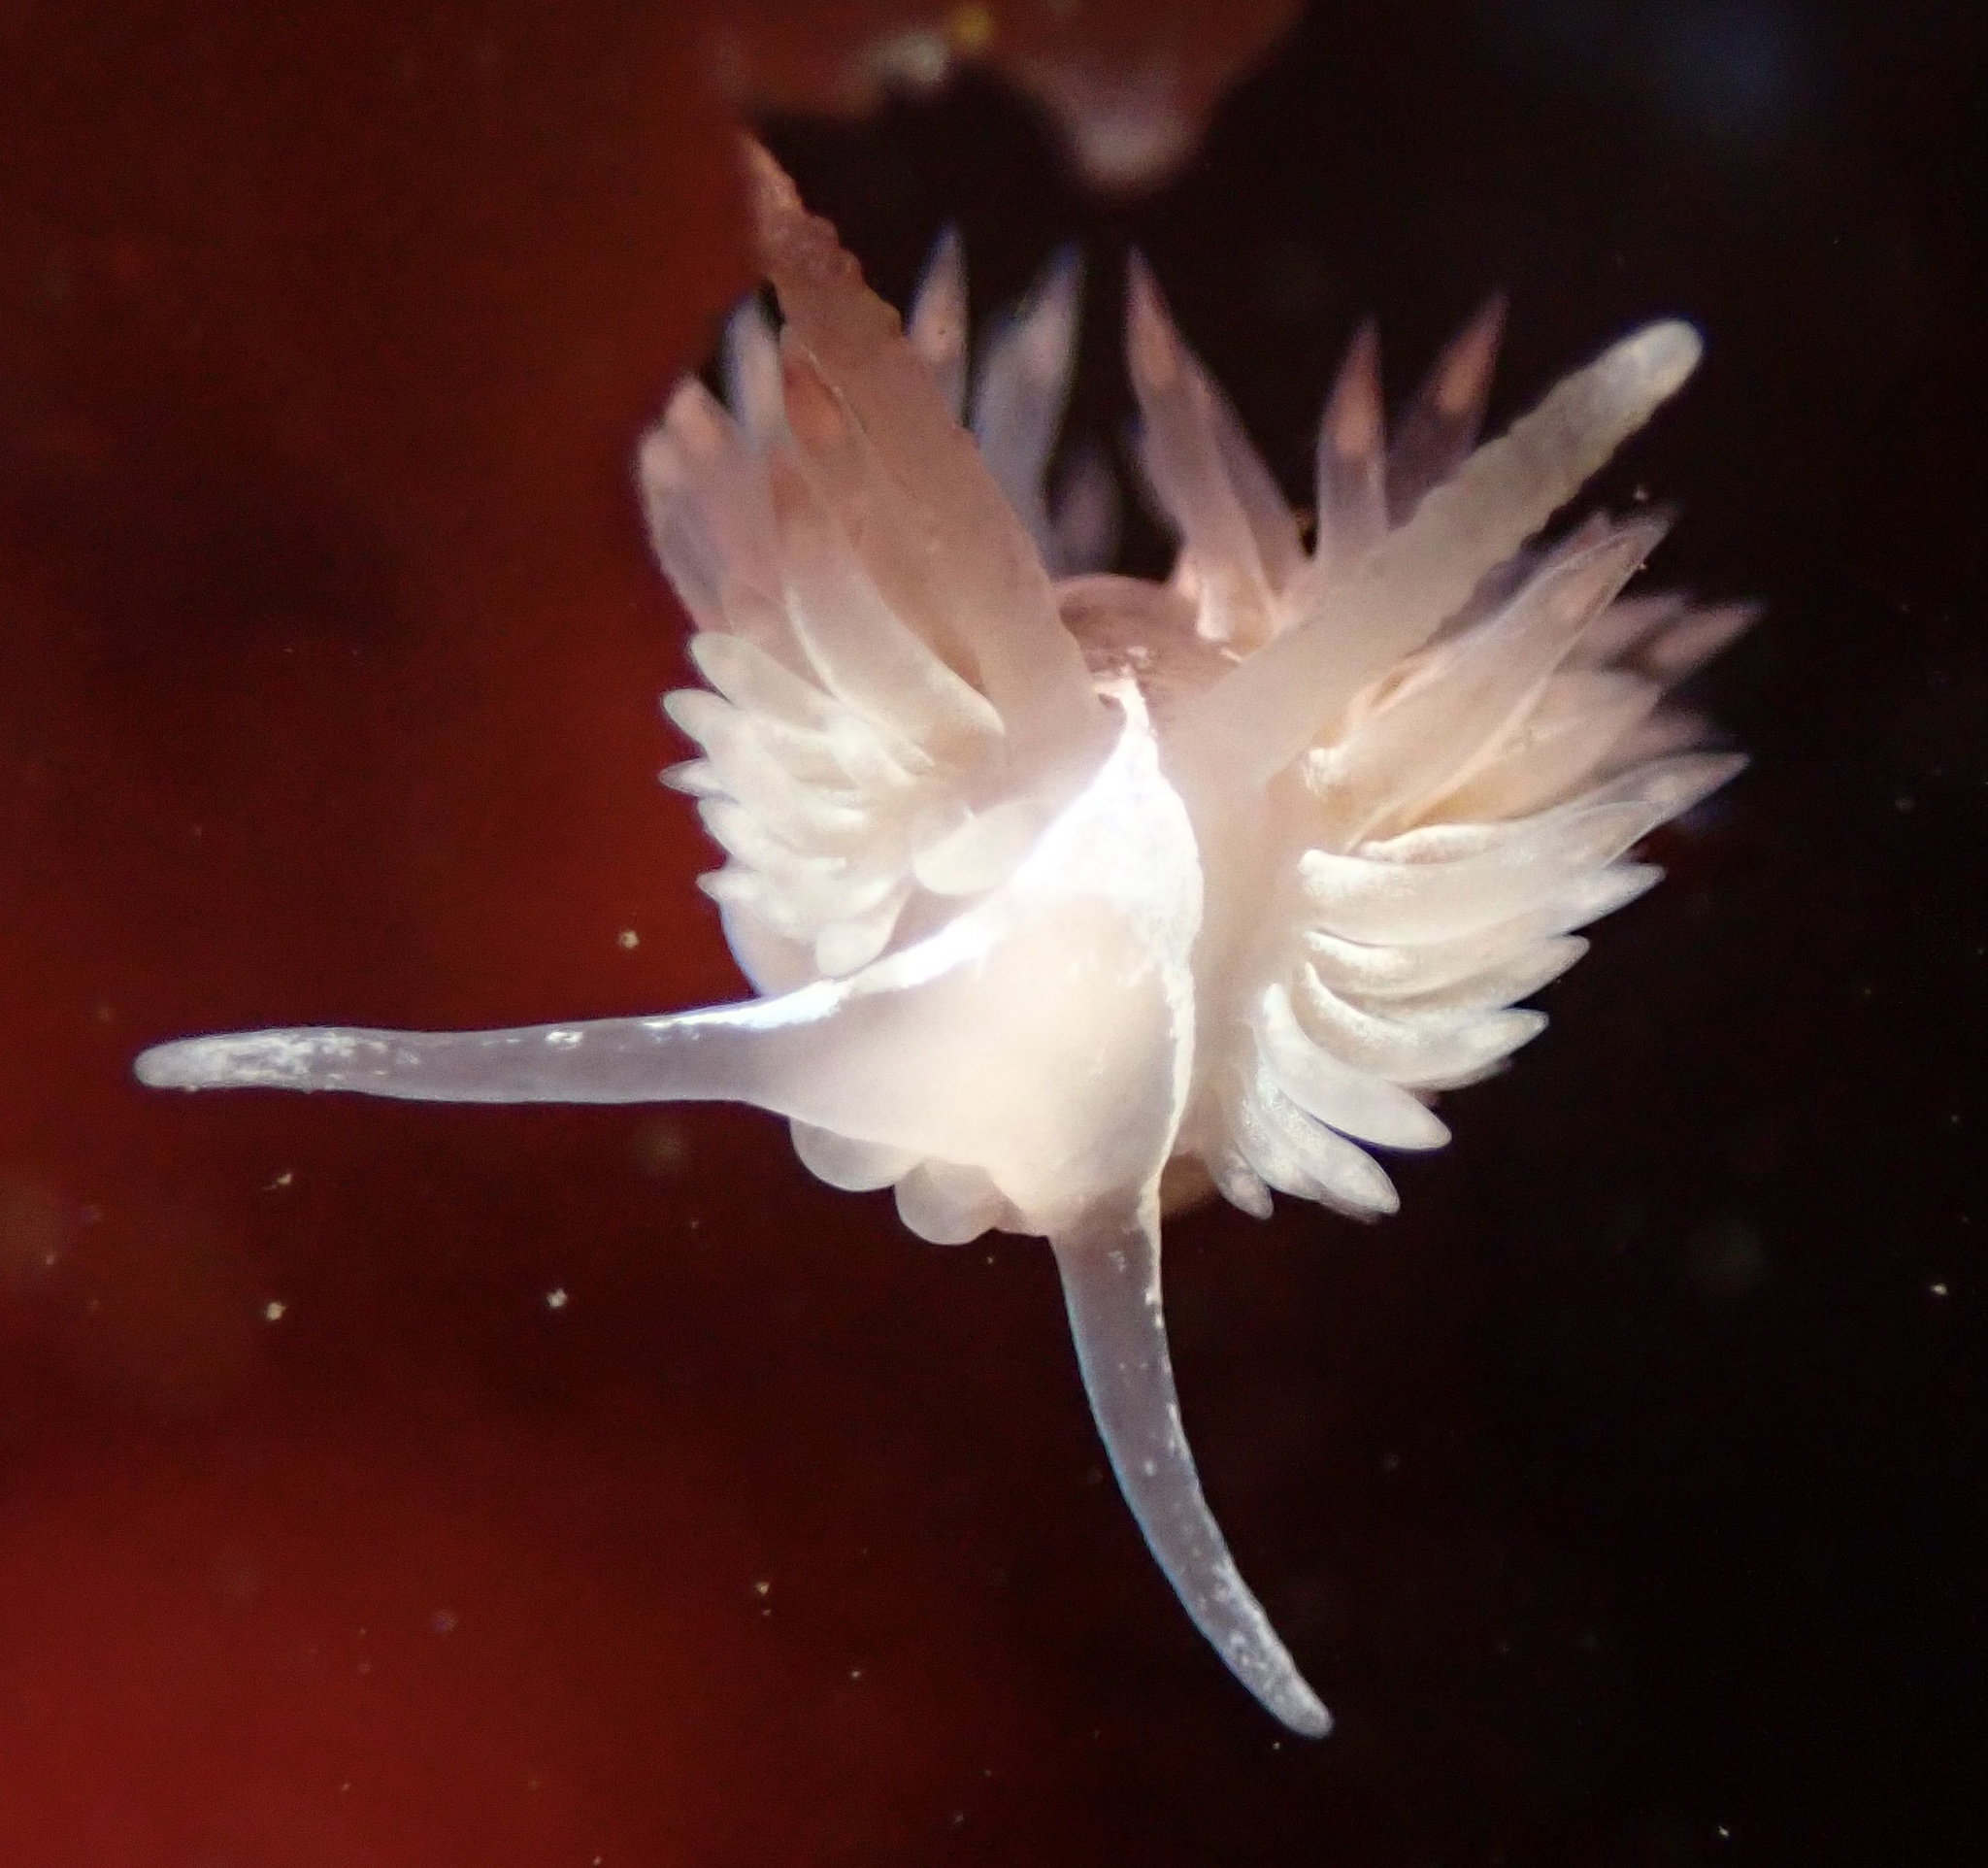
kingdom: Animalia
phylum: Mollusca
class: Gastropoda
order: Nudibranchia
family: Aeolidiidae
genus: Aeolidia
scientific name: Aeolidia loui
